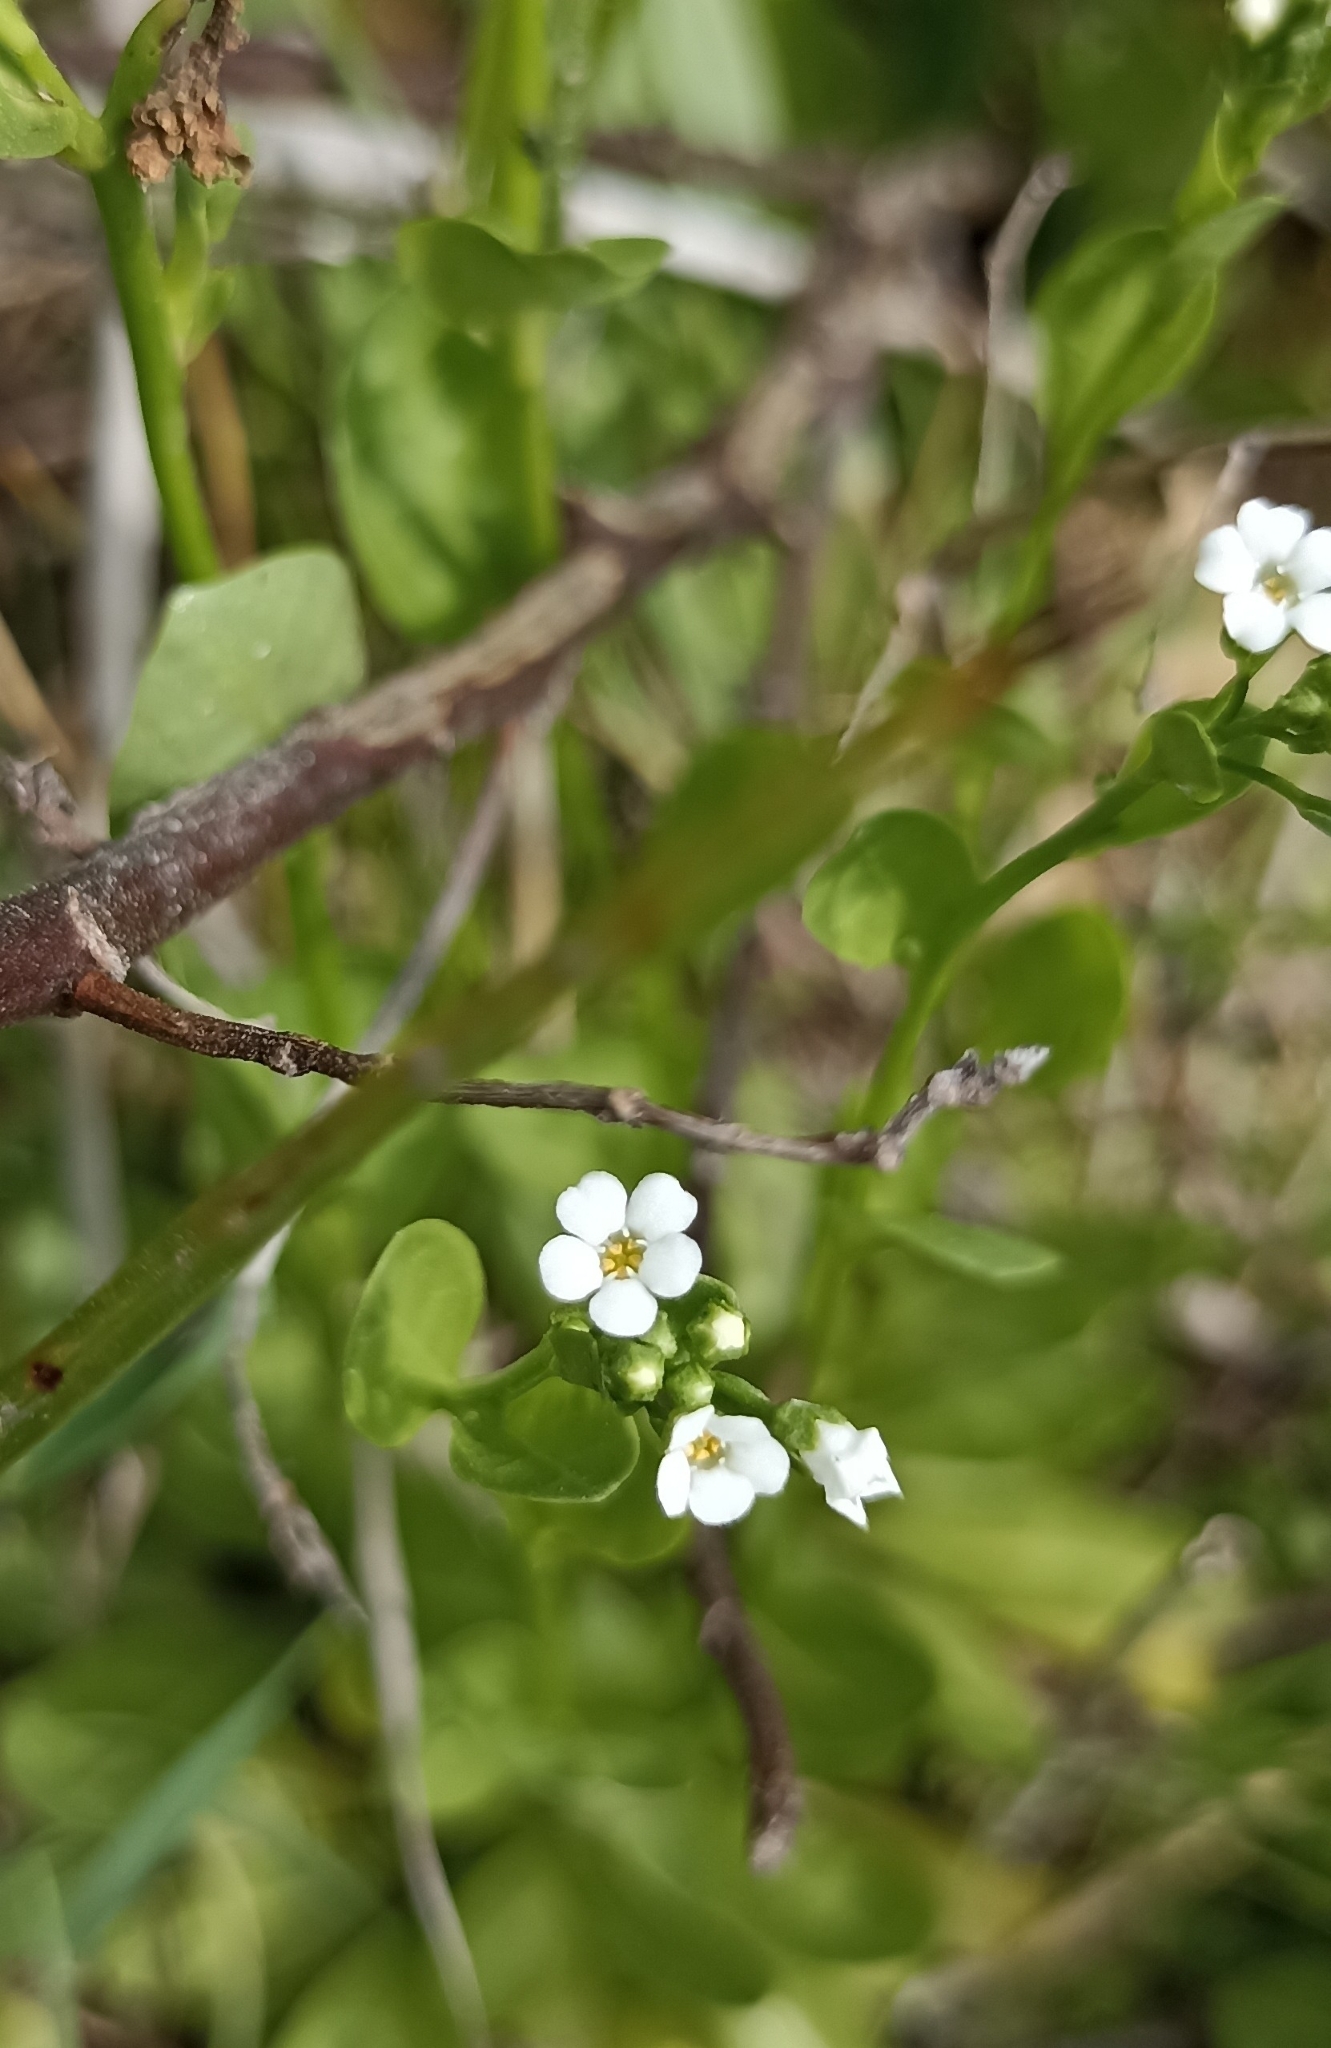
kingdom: Plantae
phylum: Tracheophyta
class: Magnoliopsida
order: Ericales
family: Primulaceae
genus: Samolus
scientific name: Samolus valerandi
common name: Brookweed
